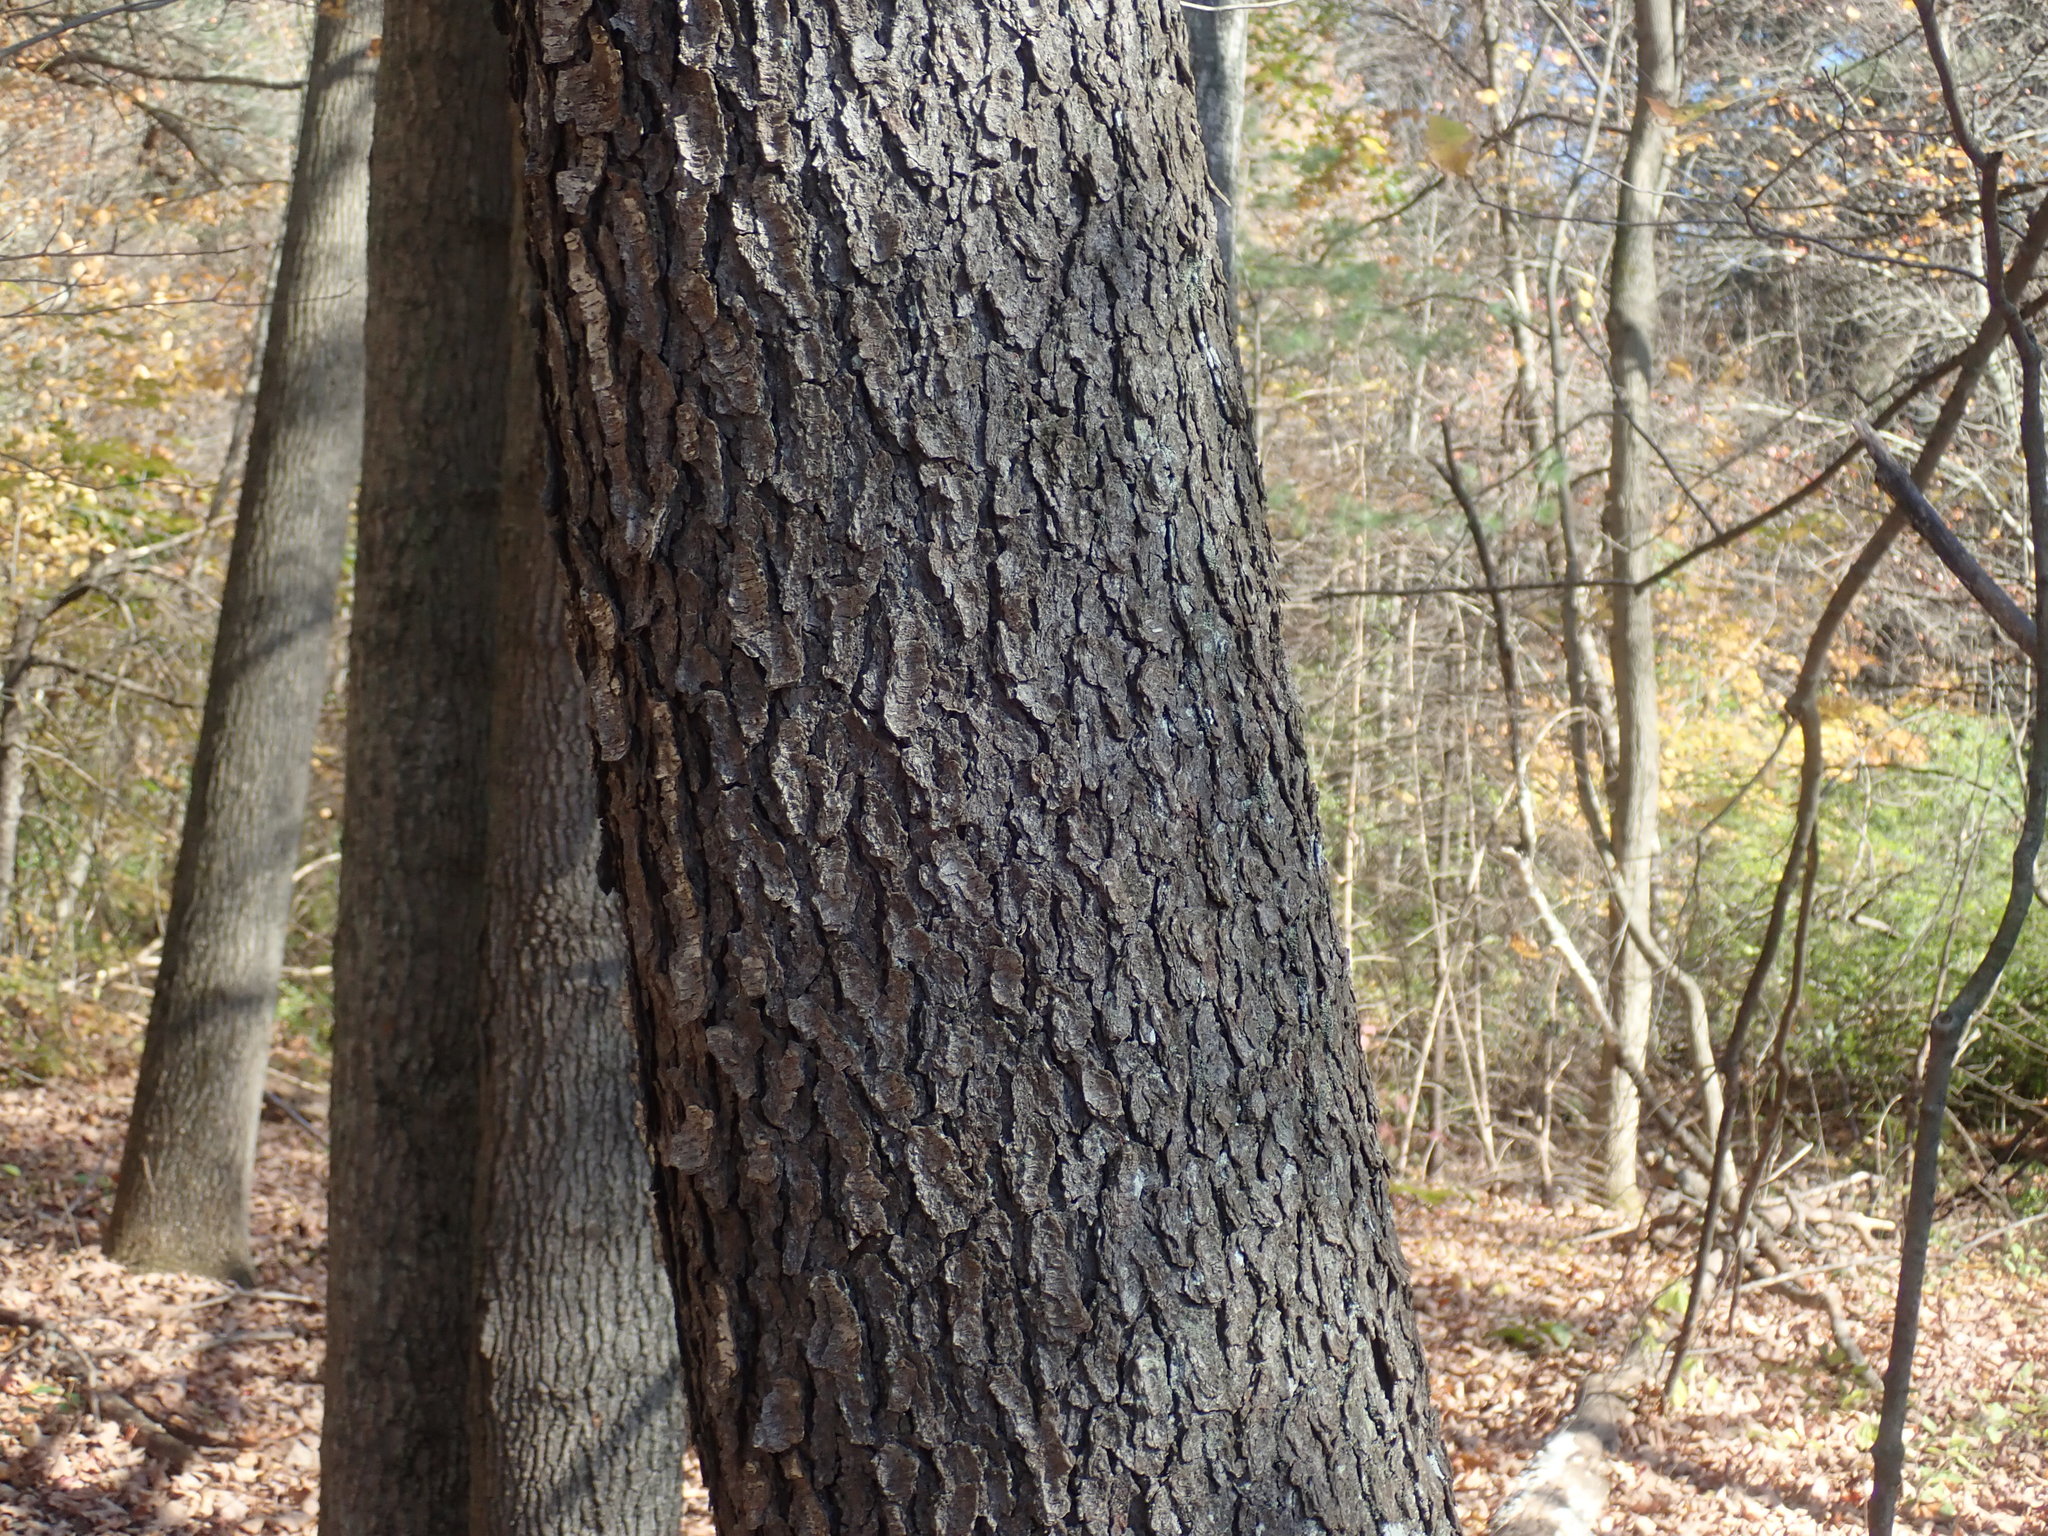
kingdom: Plantae
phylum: Tracheophyta
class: Magnoliopsida
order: Rosales
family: Rosaceae
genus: Prunus
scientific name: Prunus serotina
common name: Black cherry
